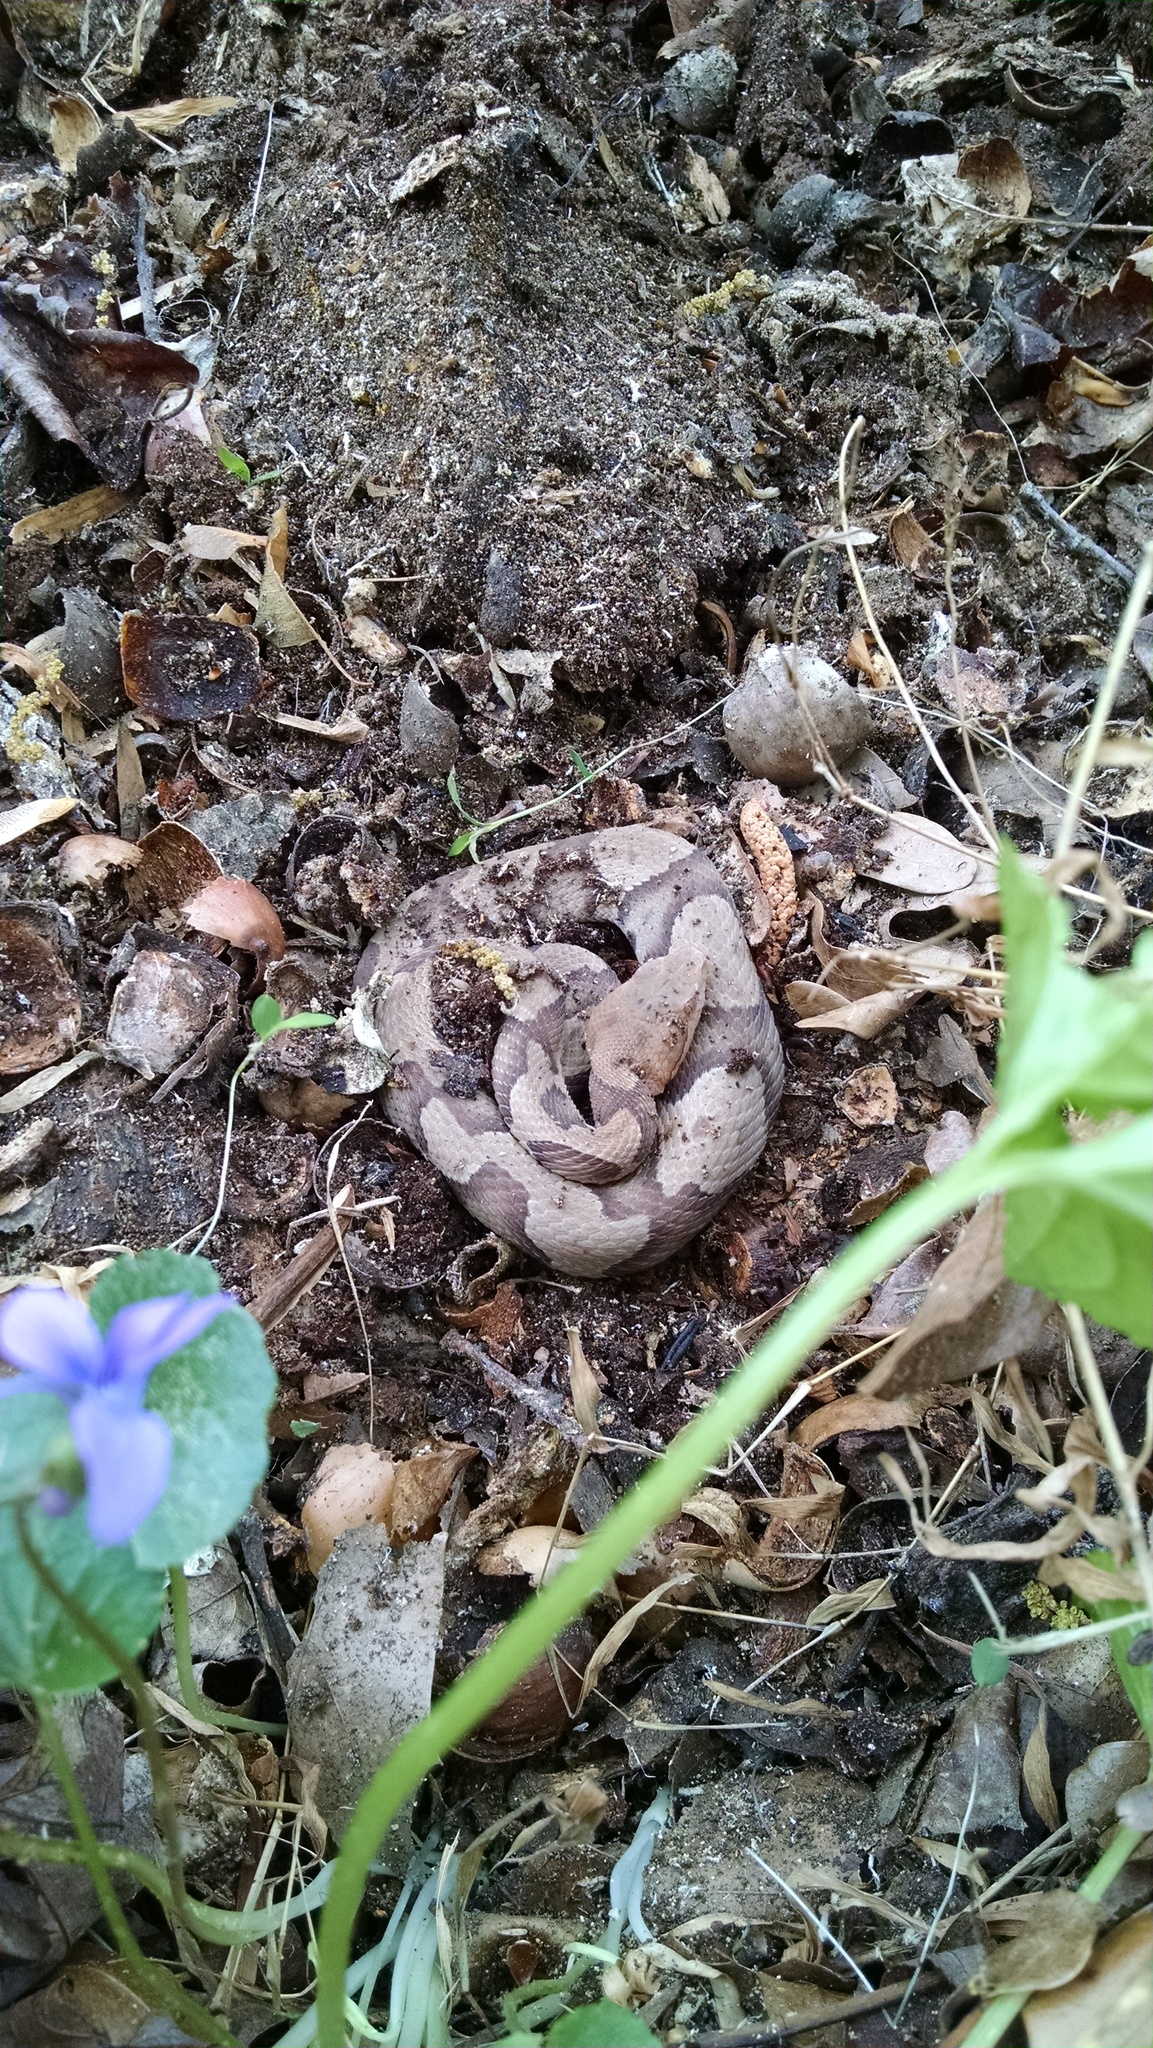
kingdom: Animalia
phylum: Chordata
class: Squamata
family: Viperidae
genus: Agkistrodon
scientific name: Agkistrodon contortrix
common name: Northern copperhead
